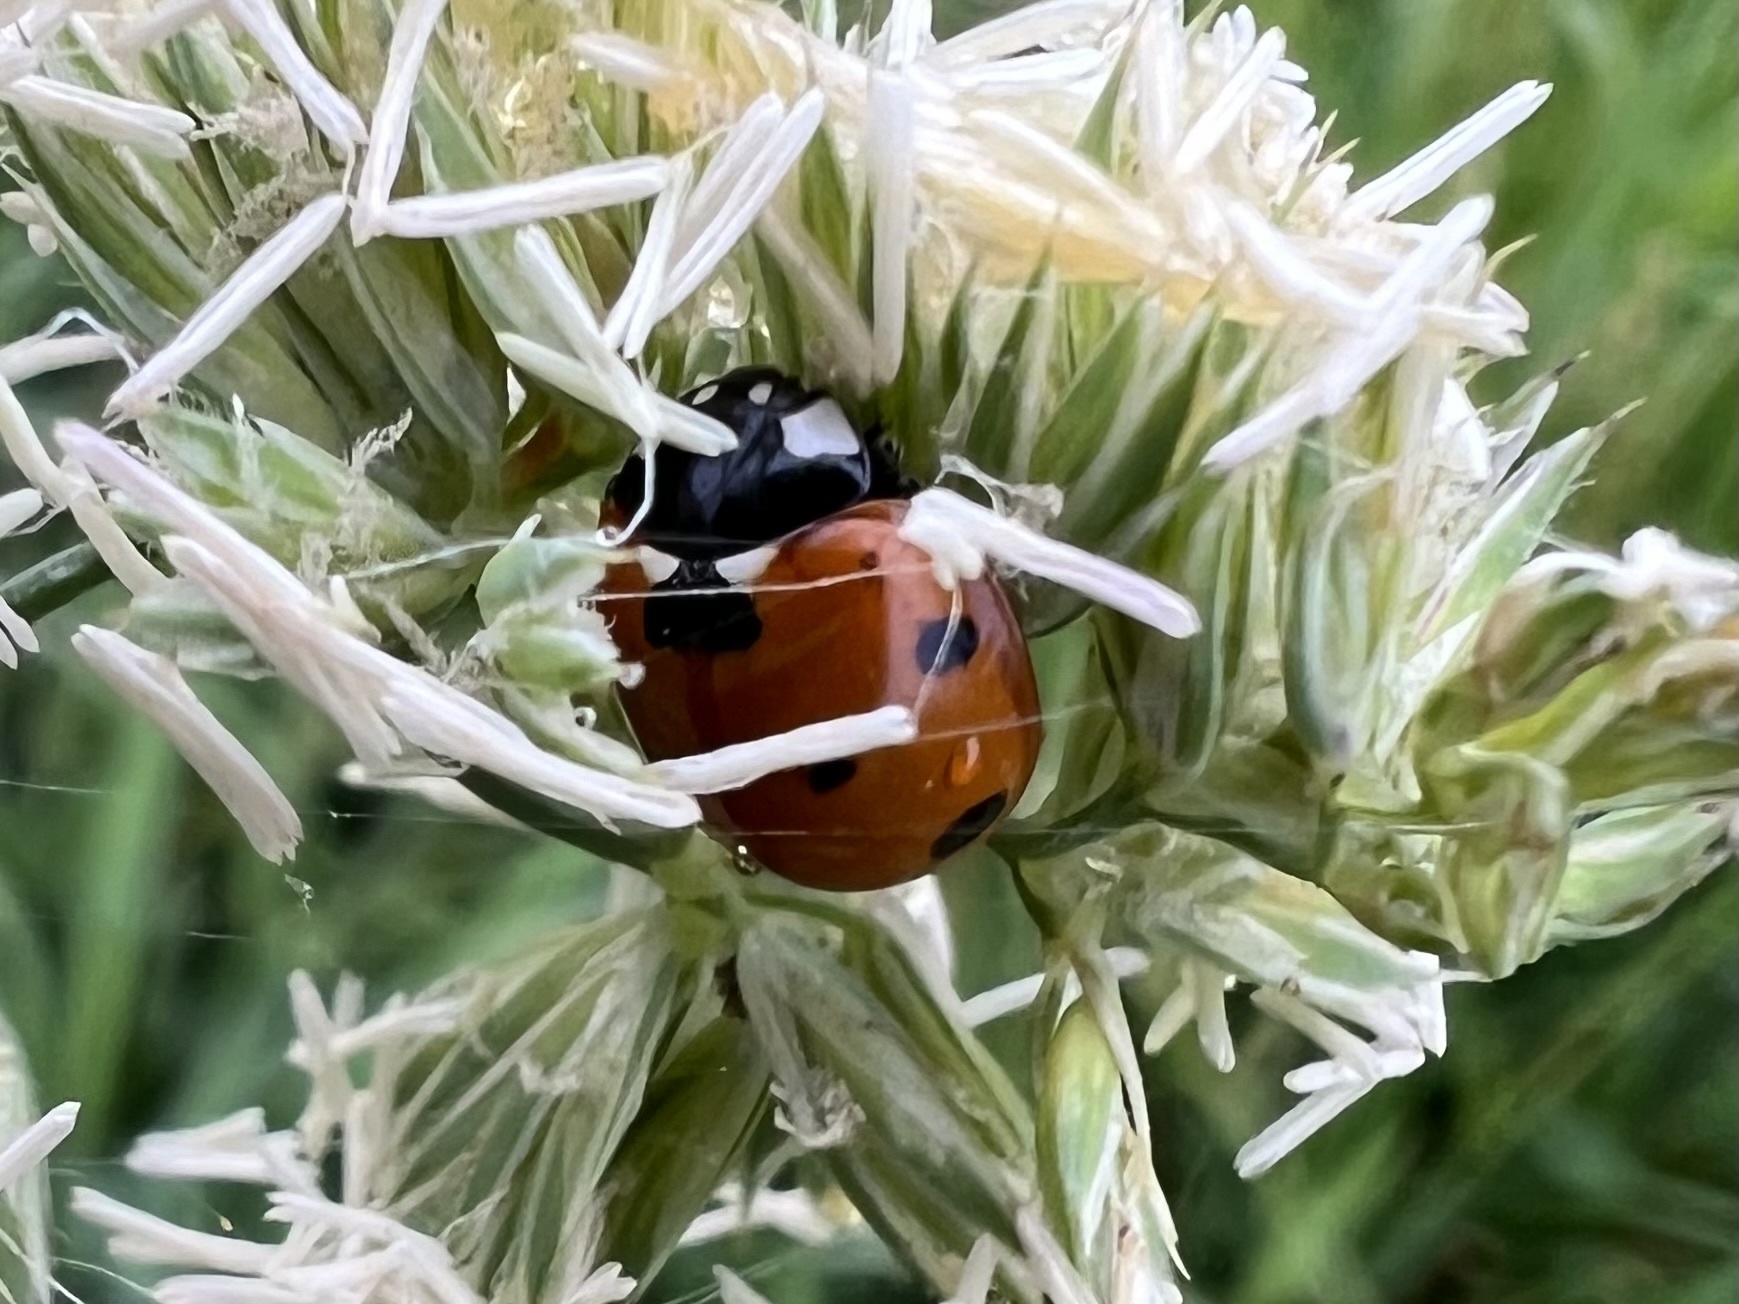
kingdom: Animalia
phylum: Arthropoda
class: Insecta
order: Coleoptera
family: Coccinellidae
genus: Coccinella
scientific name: Coccinella septempunctata
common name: Sevenspotted lady beetle
